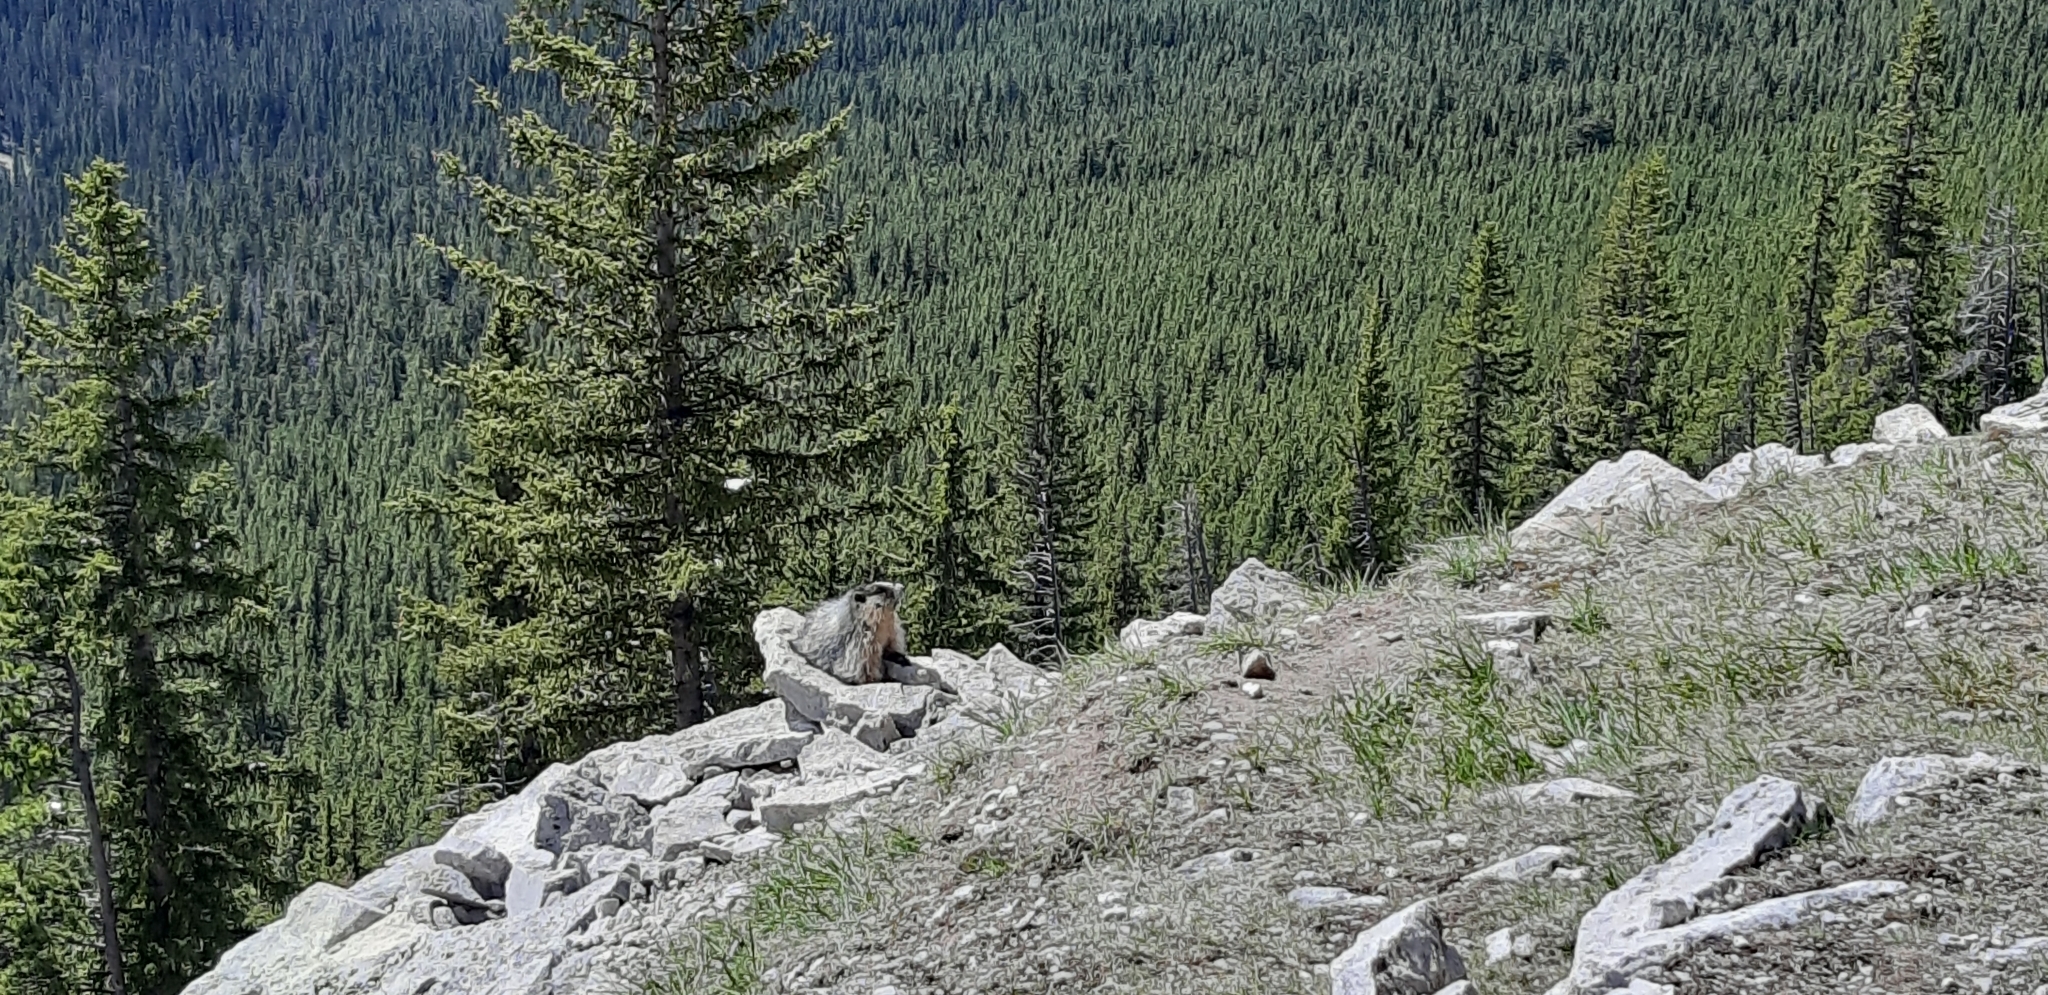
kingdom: Animalia
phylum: Chordata
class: Mammalia
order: Rodentia
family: Sciuridae
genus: Marmota
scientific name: Marmota caligata
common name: Hoary marmot
